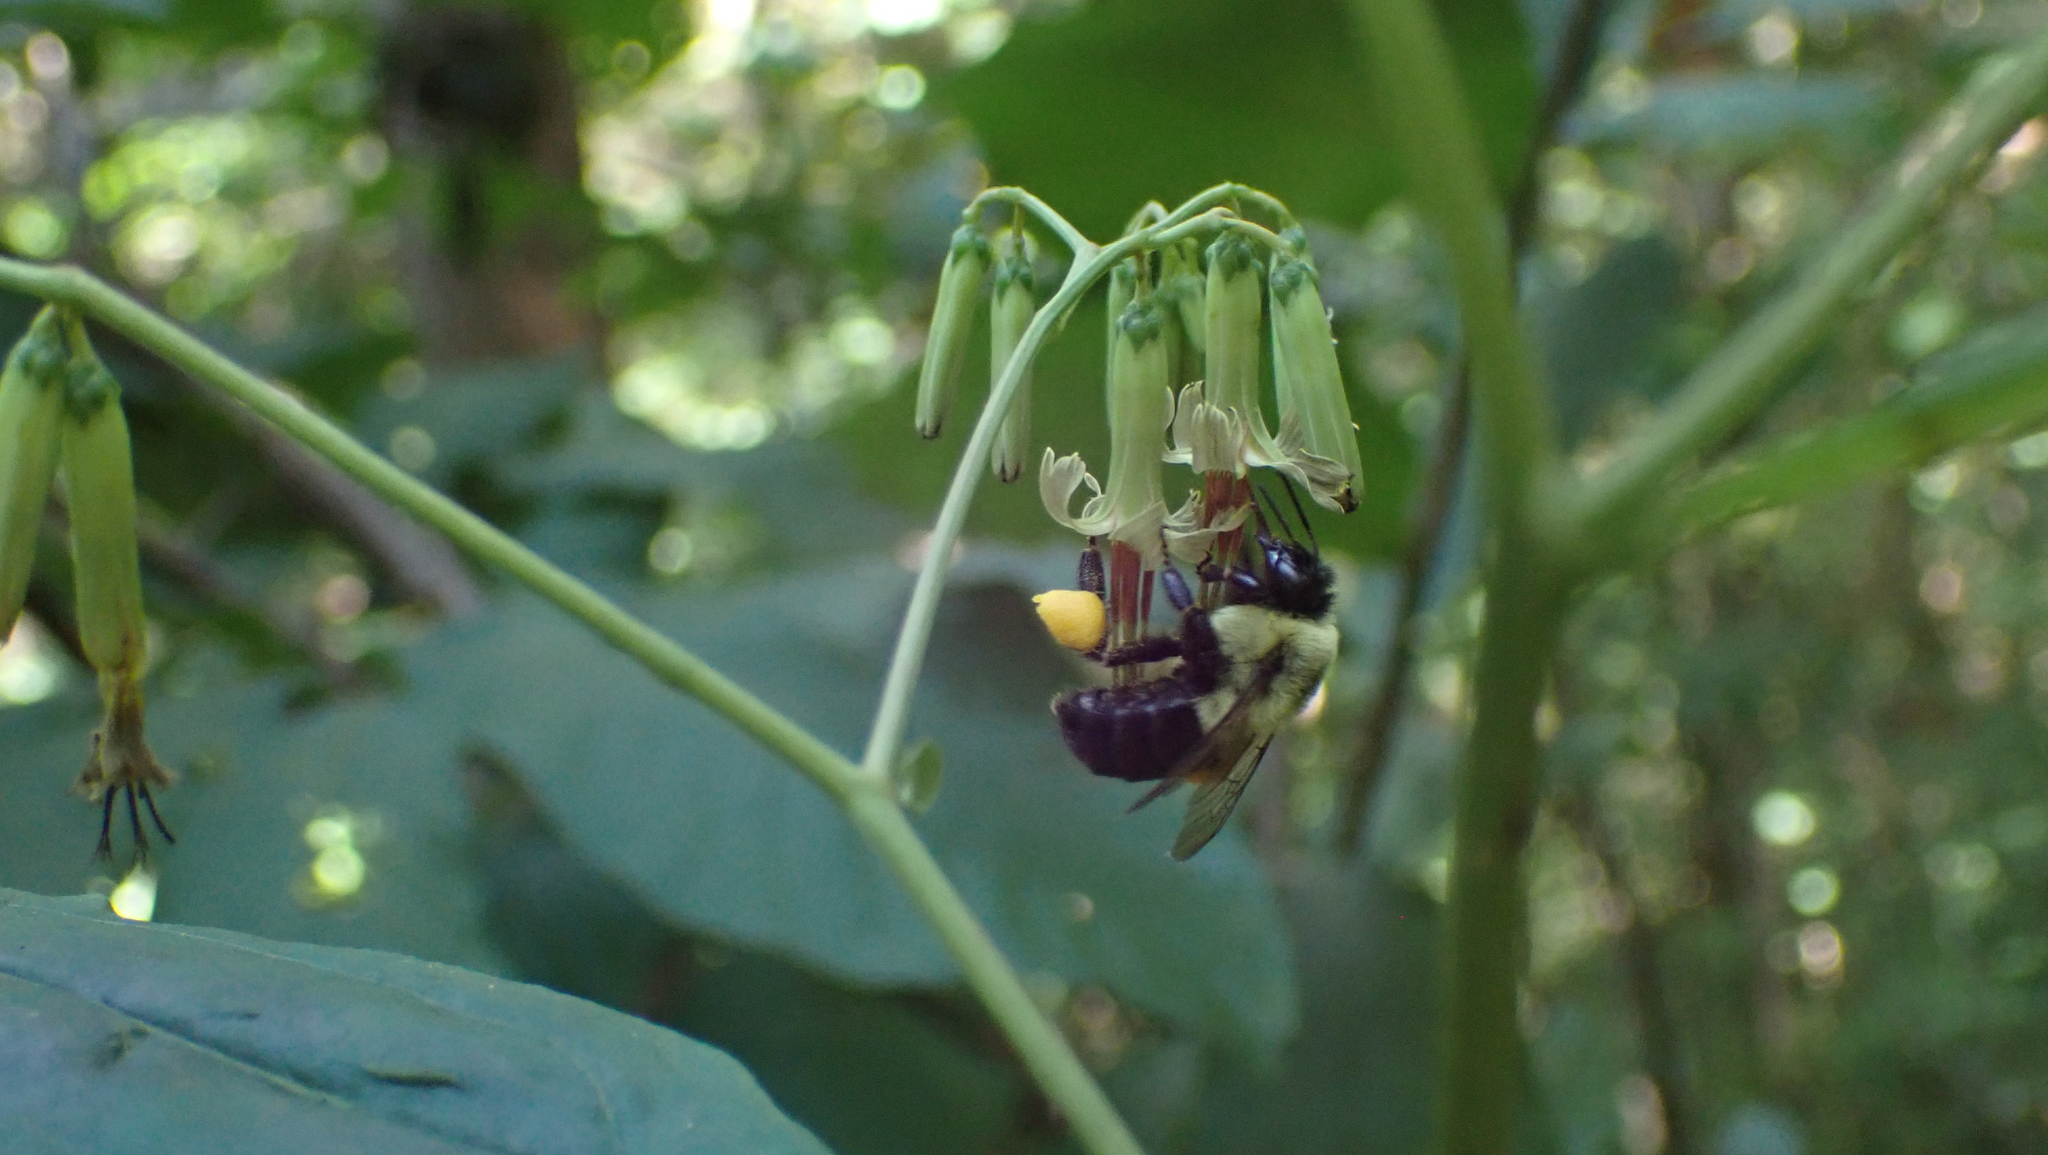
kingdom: Animalia
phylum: Arthropoda
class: Insecta
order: Hymenoptera
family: Apidae
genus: Bombus
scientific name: Bombus impatiens
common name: Common eastern bumble bee
